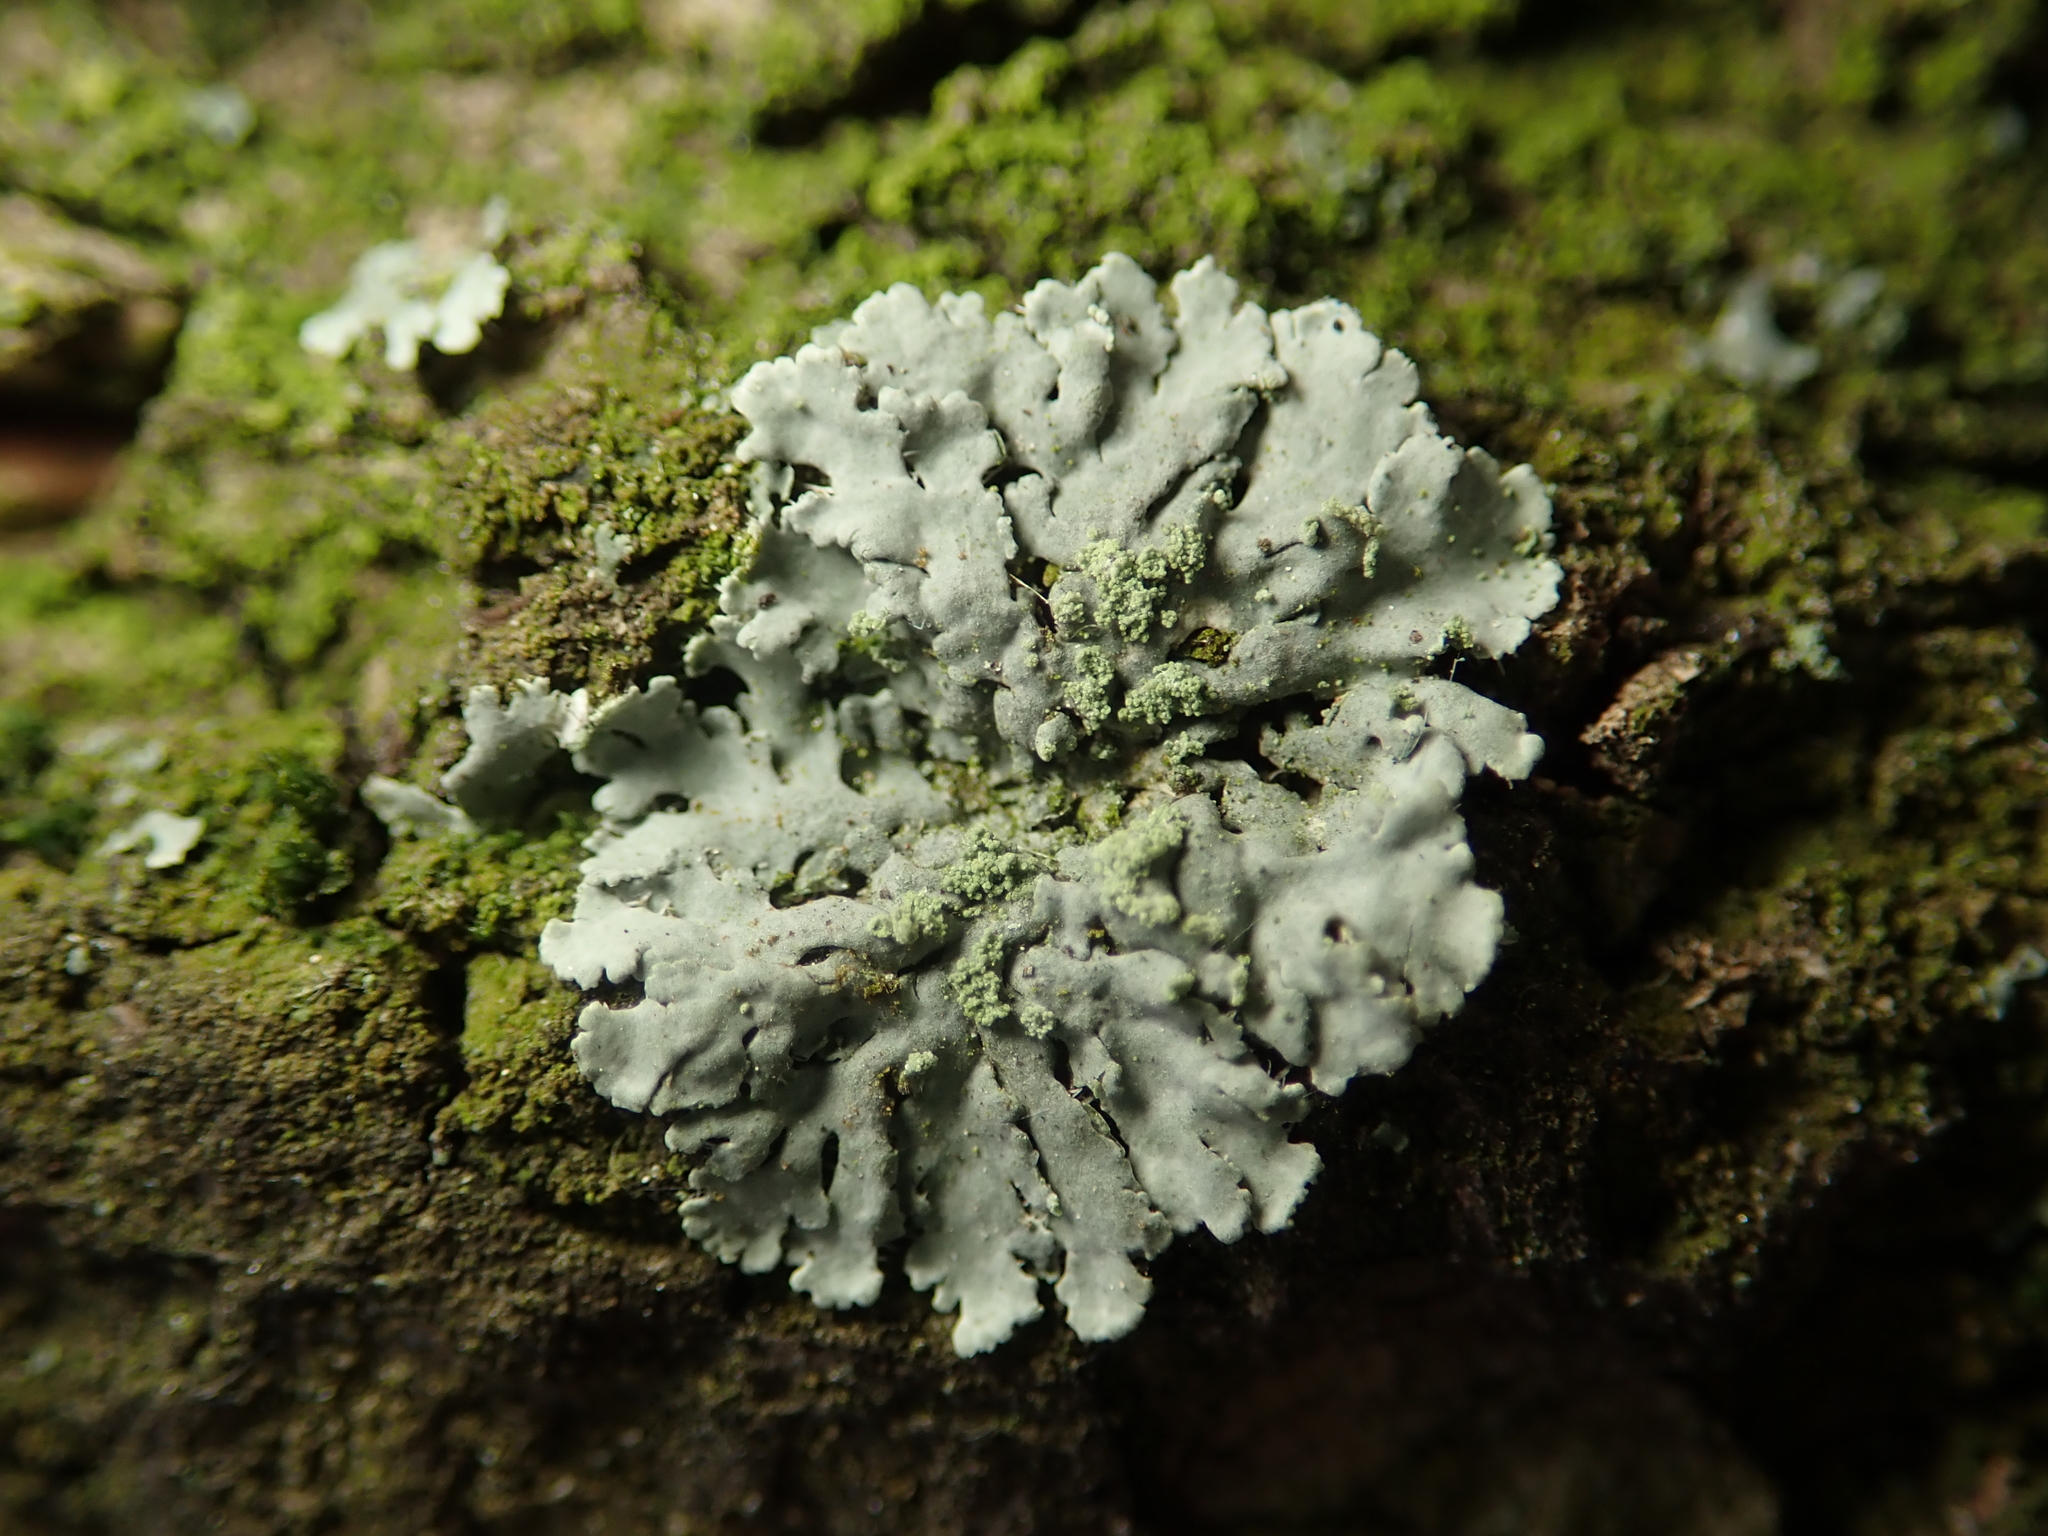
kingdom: Fungi
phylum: Ascomycota
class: Lecanoromycetes
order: Caliciales
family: Physciaceae
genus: Phaeophyscia
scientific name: Phaeophyscia orbicularis
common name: Mealy shadow lichen
